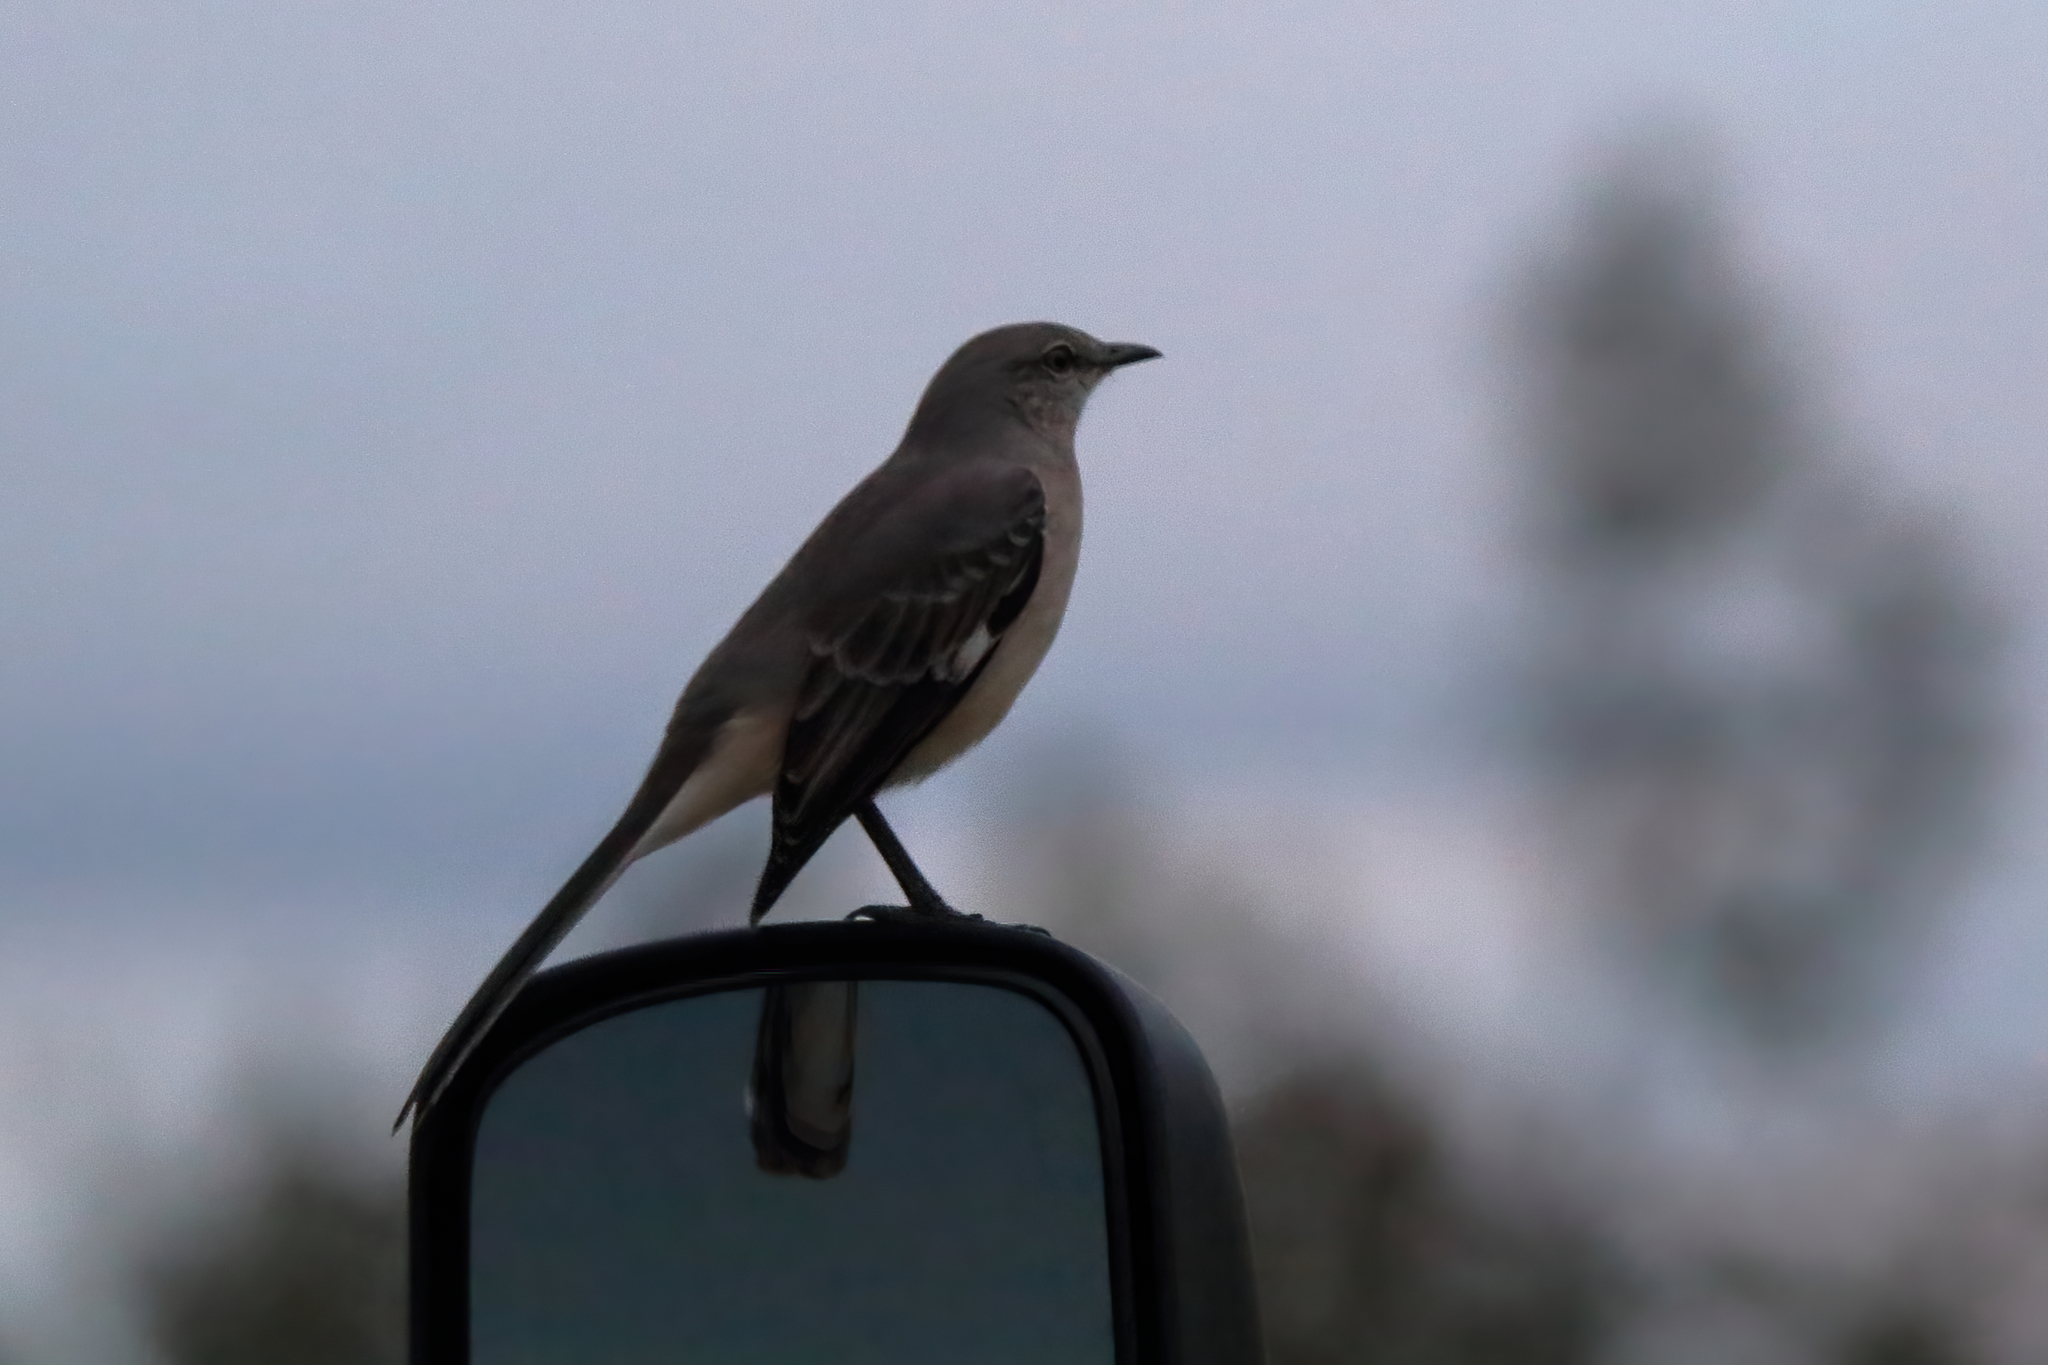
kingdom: Animalia
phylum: Chordata
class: Aves
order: Passeriformes
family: Mimidae
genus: Mimus
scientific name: Mimus polyglottos
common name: Northern mockingbird
